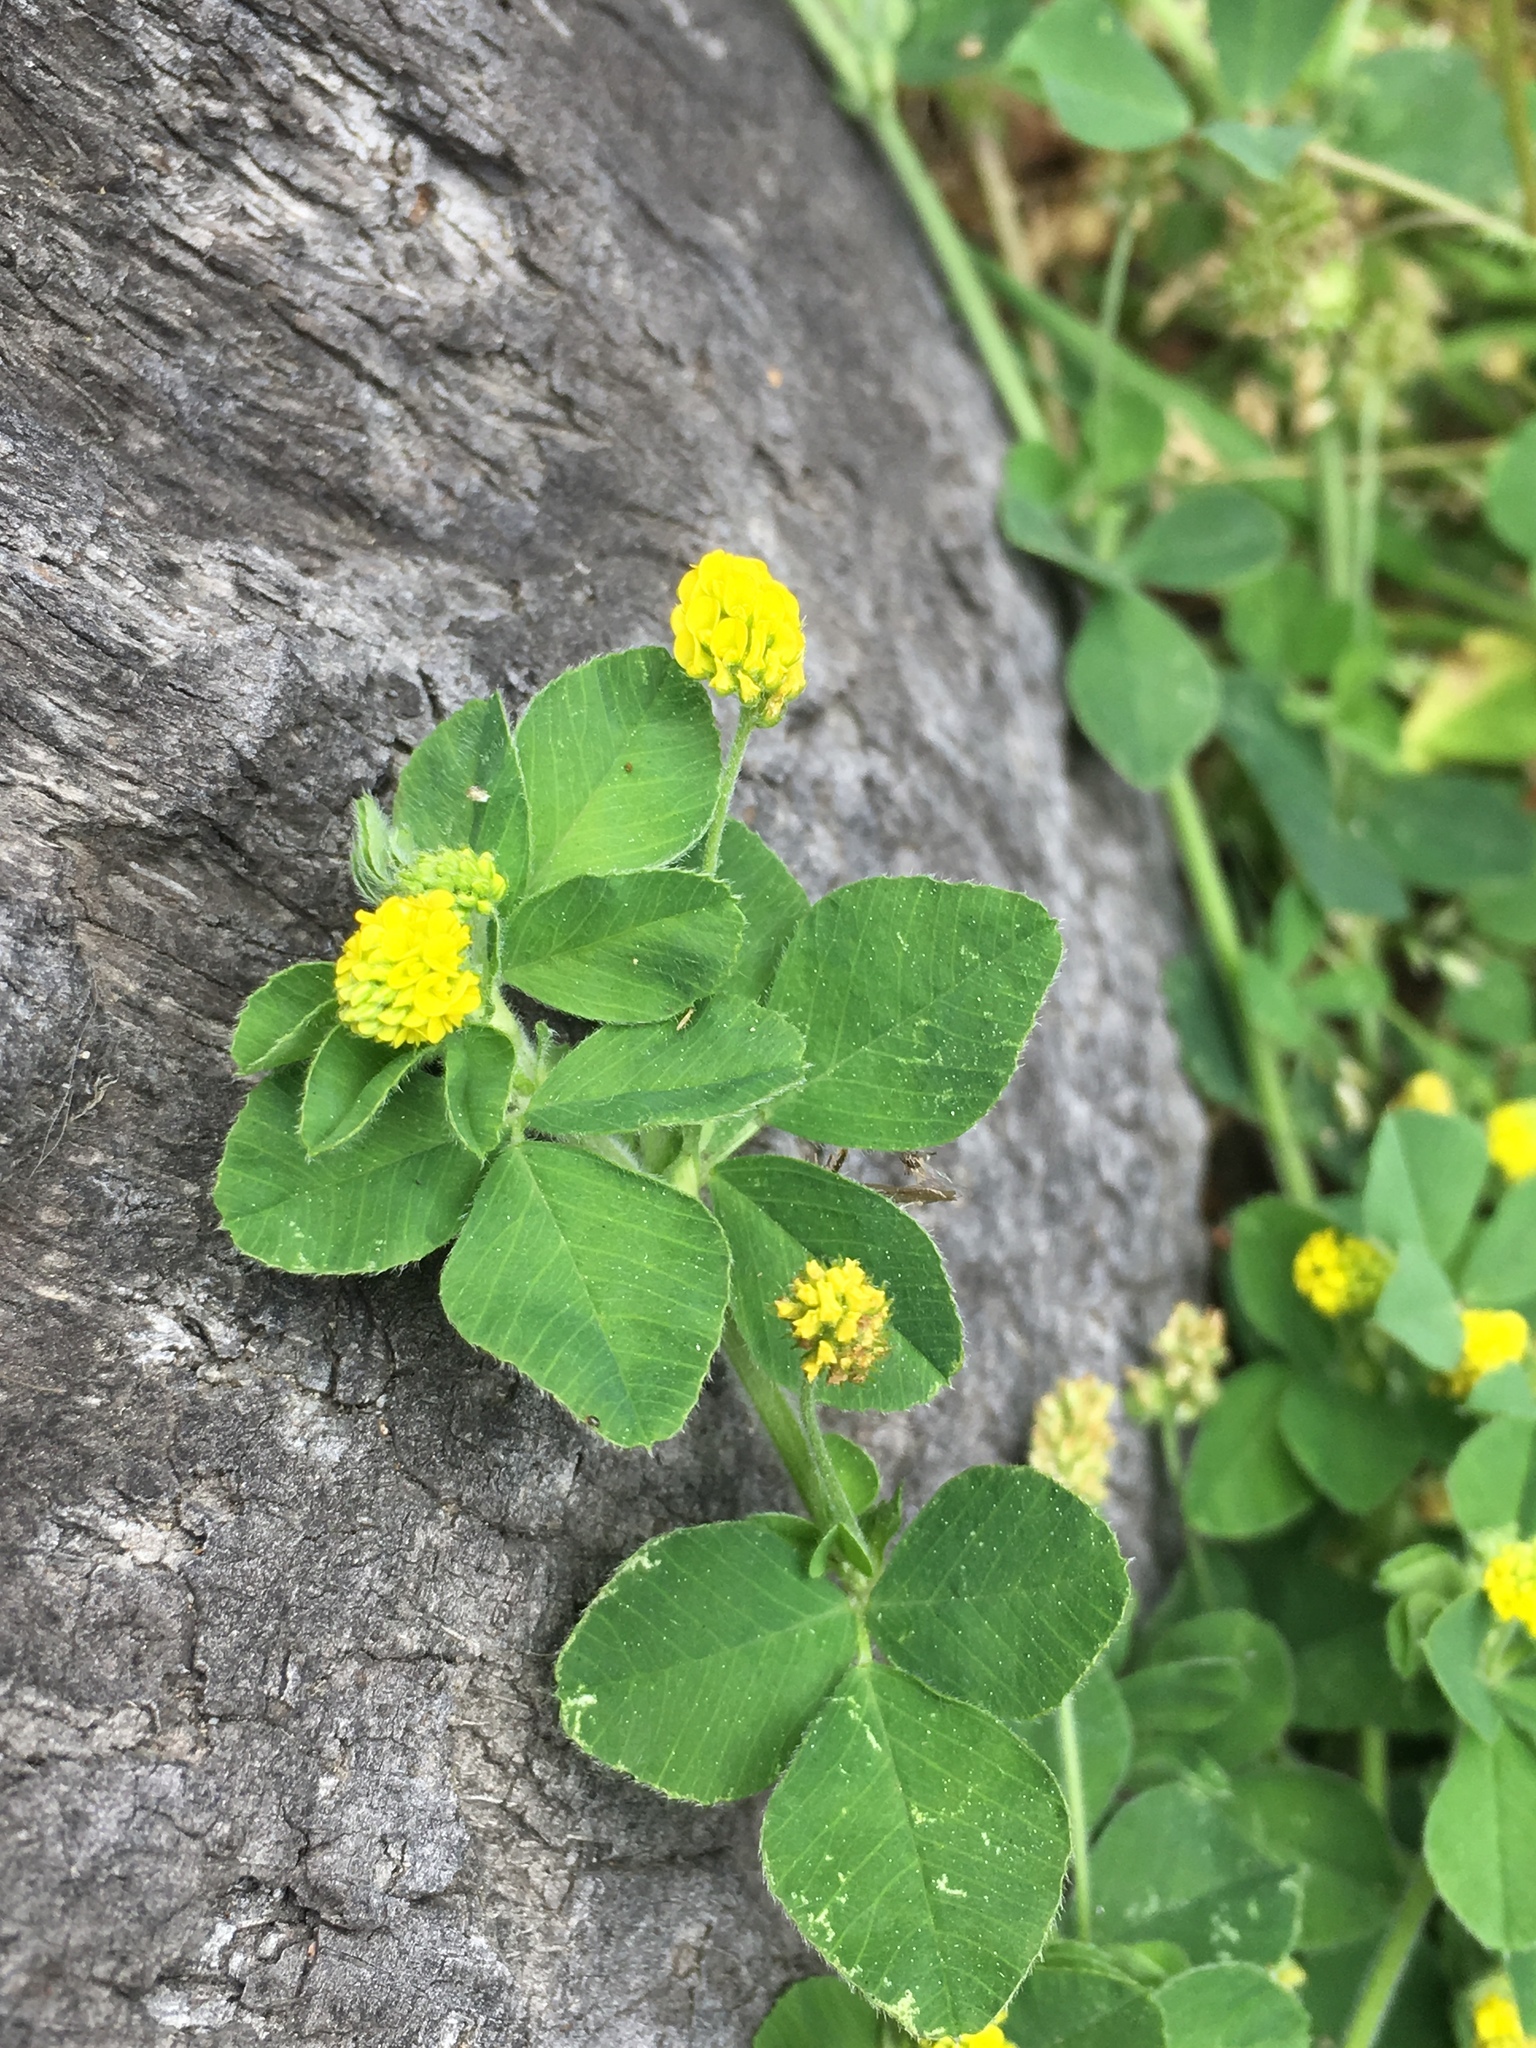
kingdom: Plantae
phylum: Tracheophyta
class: Magnoliopsida
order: Fabales
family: Fabaceae
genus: Medicago
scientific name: Medicago lupulina
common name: Black medick
